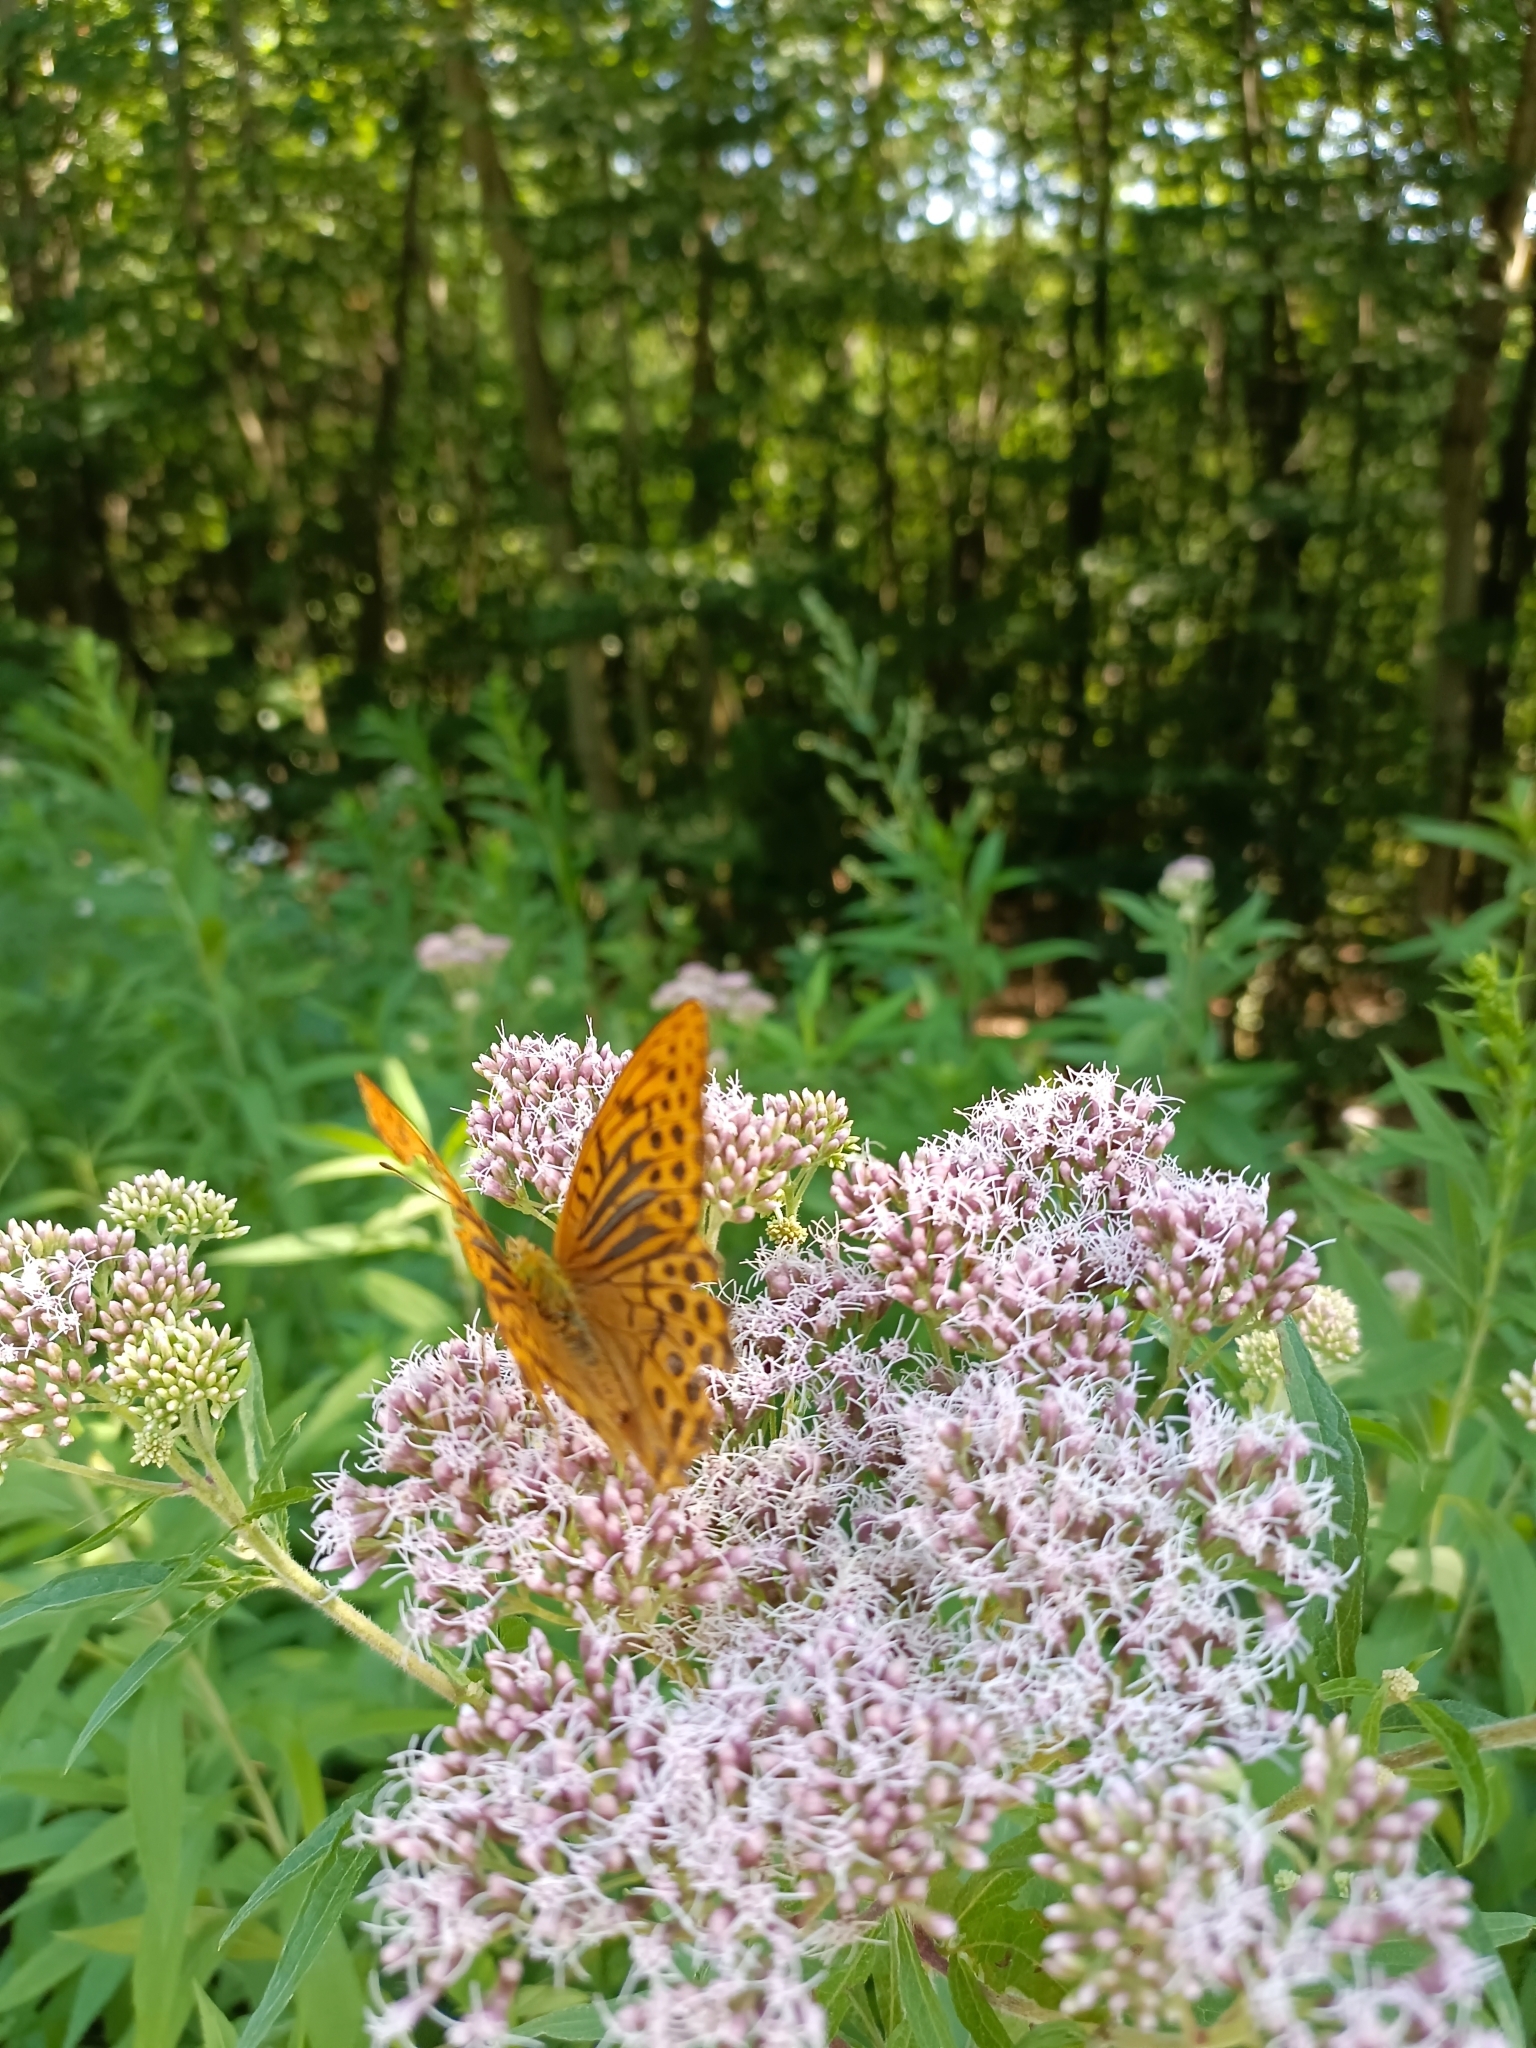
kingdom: Animalia
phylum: Arthropoda
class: Insecta
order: Lepidoptera
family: Nymphalidae
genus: Argynnis
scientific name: Argynnis paphia
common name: Silver-washed fritillary
